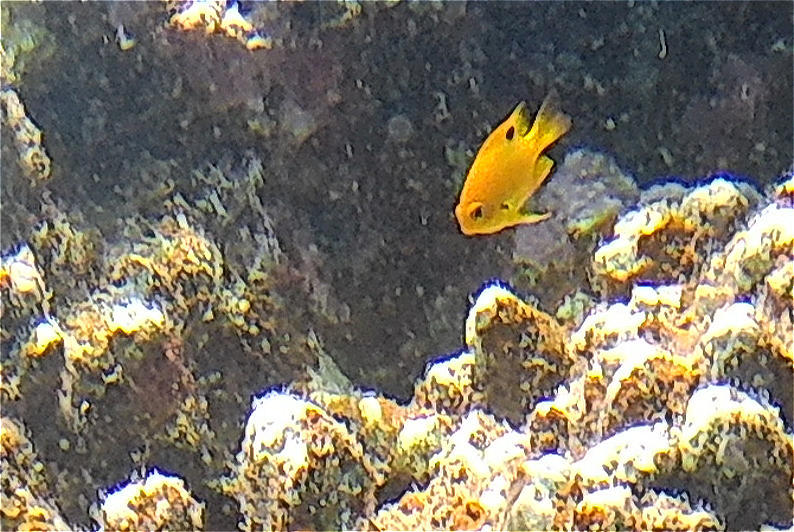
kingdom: Animalia
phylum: Chordata
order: Perciformes
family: Pomacentridae
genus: Pomacentrus
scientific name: Pomacentrus sulfureus
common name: Sulfur damsel
